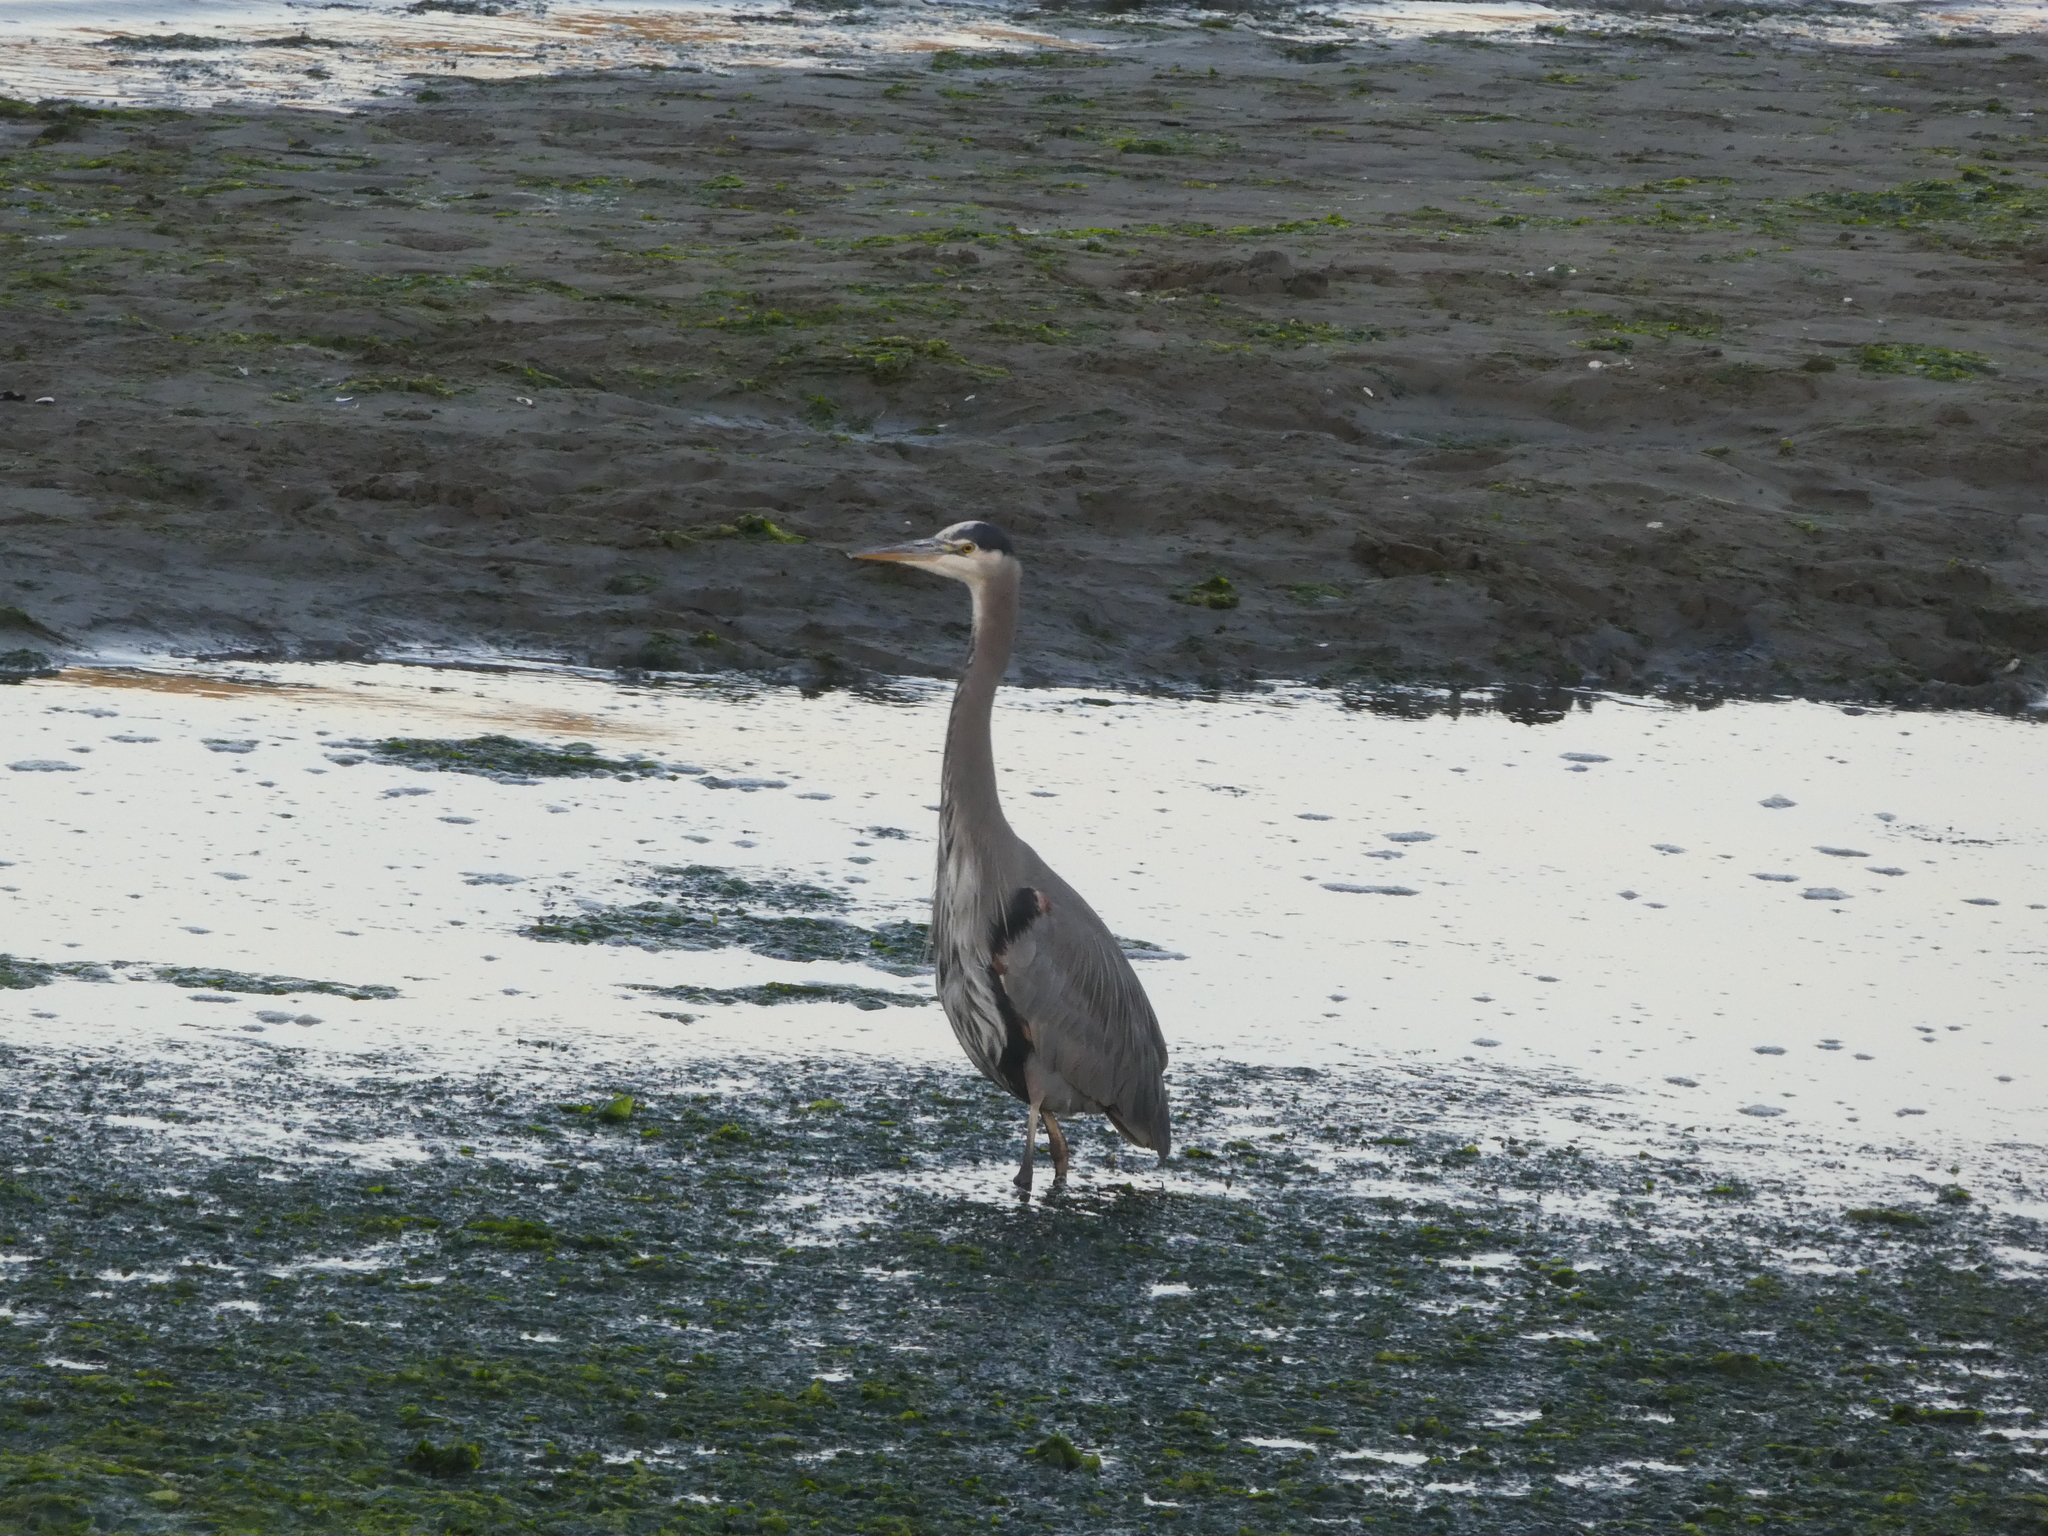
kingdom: Animalia
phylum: Chordata
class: Aves
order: Pelecaniformes
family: Ardeidae
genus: Ardea
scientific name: Ardea herodias
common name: Great blue heron
